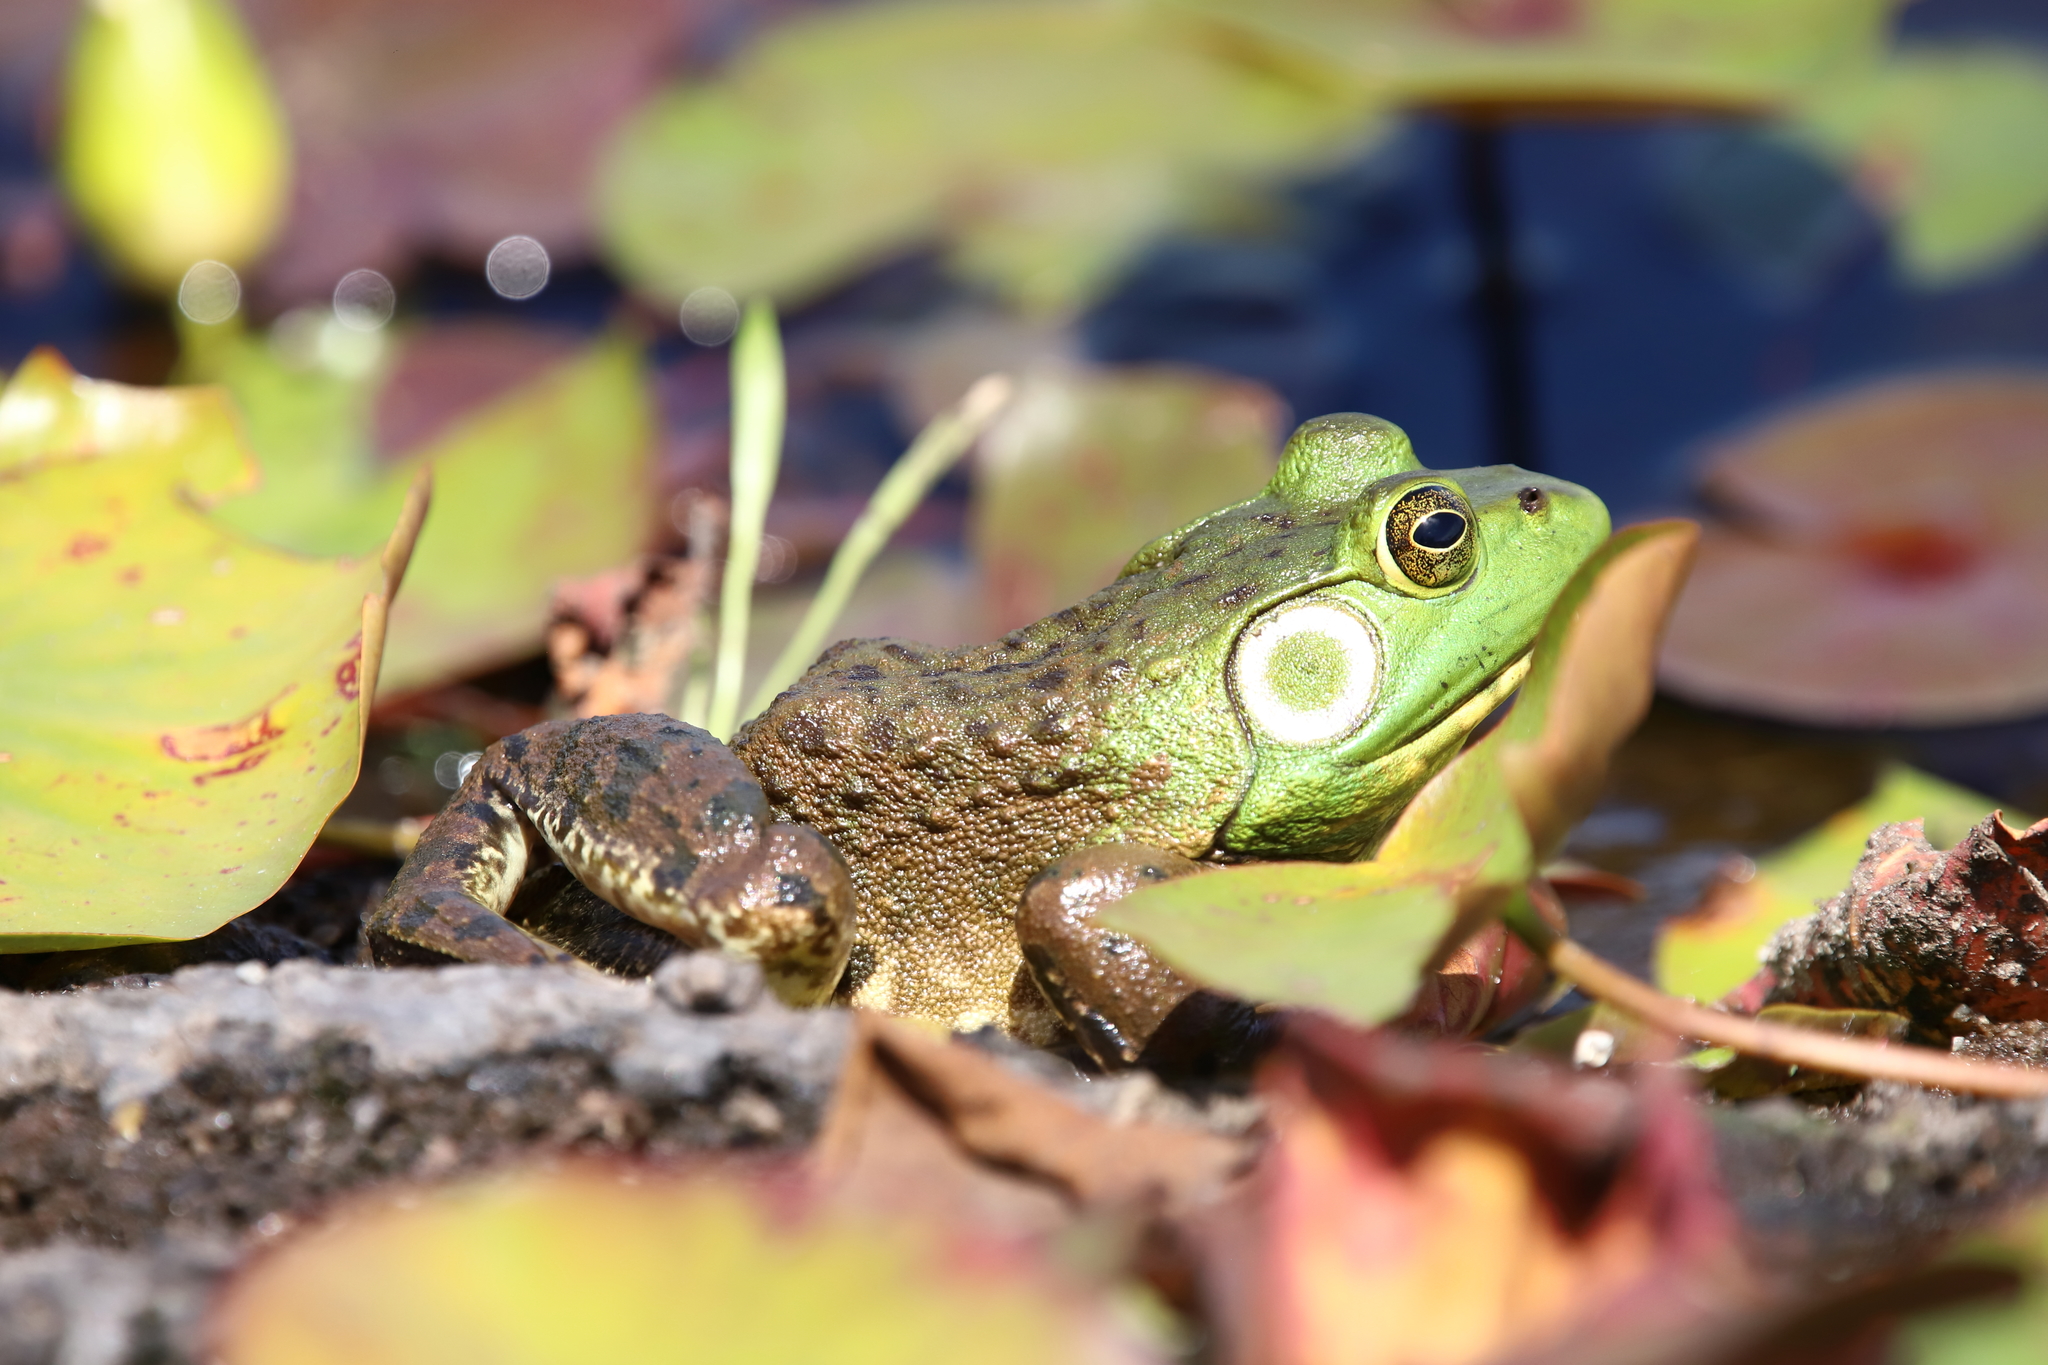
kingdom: Animalia
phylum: Chordata
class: Amphibia
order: Anura
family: Ranidae
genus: Lithobates
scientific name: Lithobates catesbeianus
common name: American bullfrog
